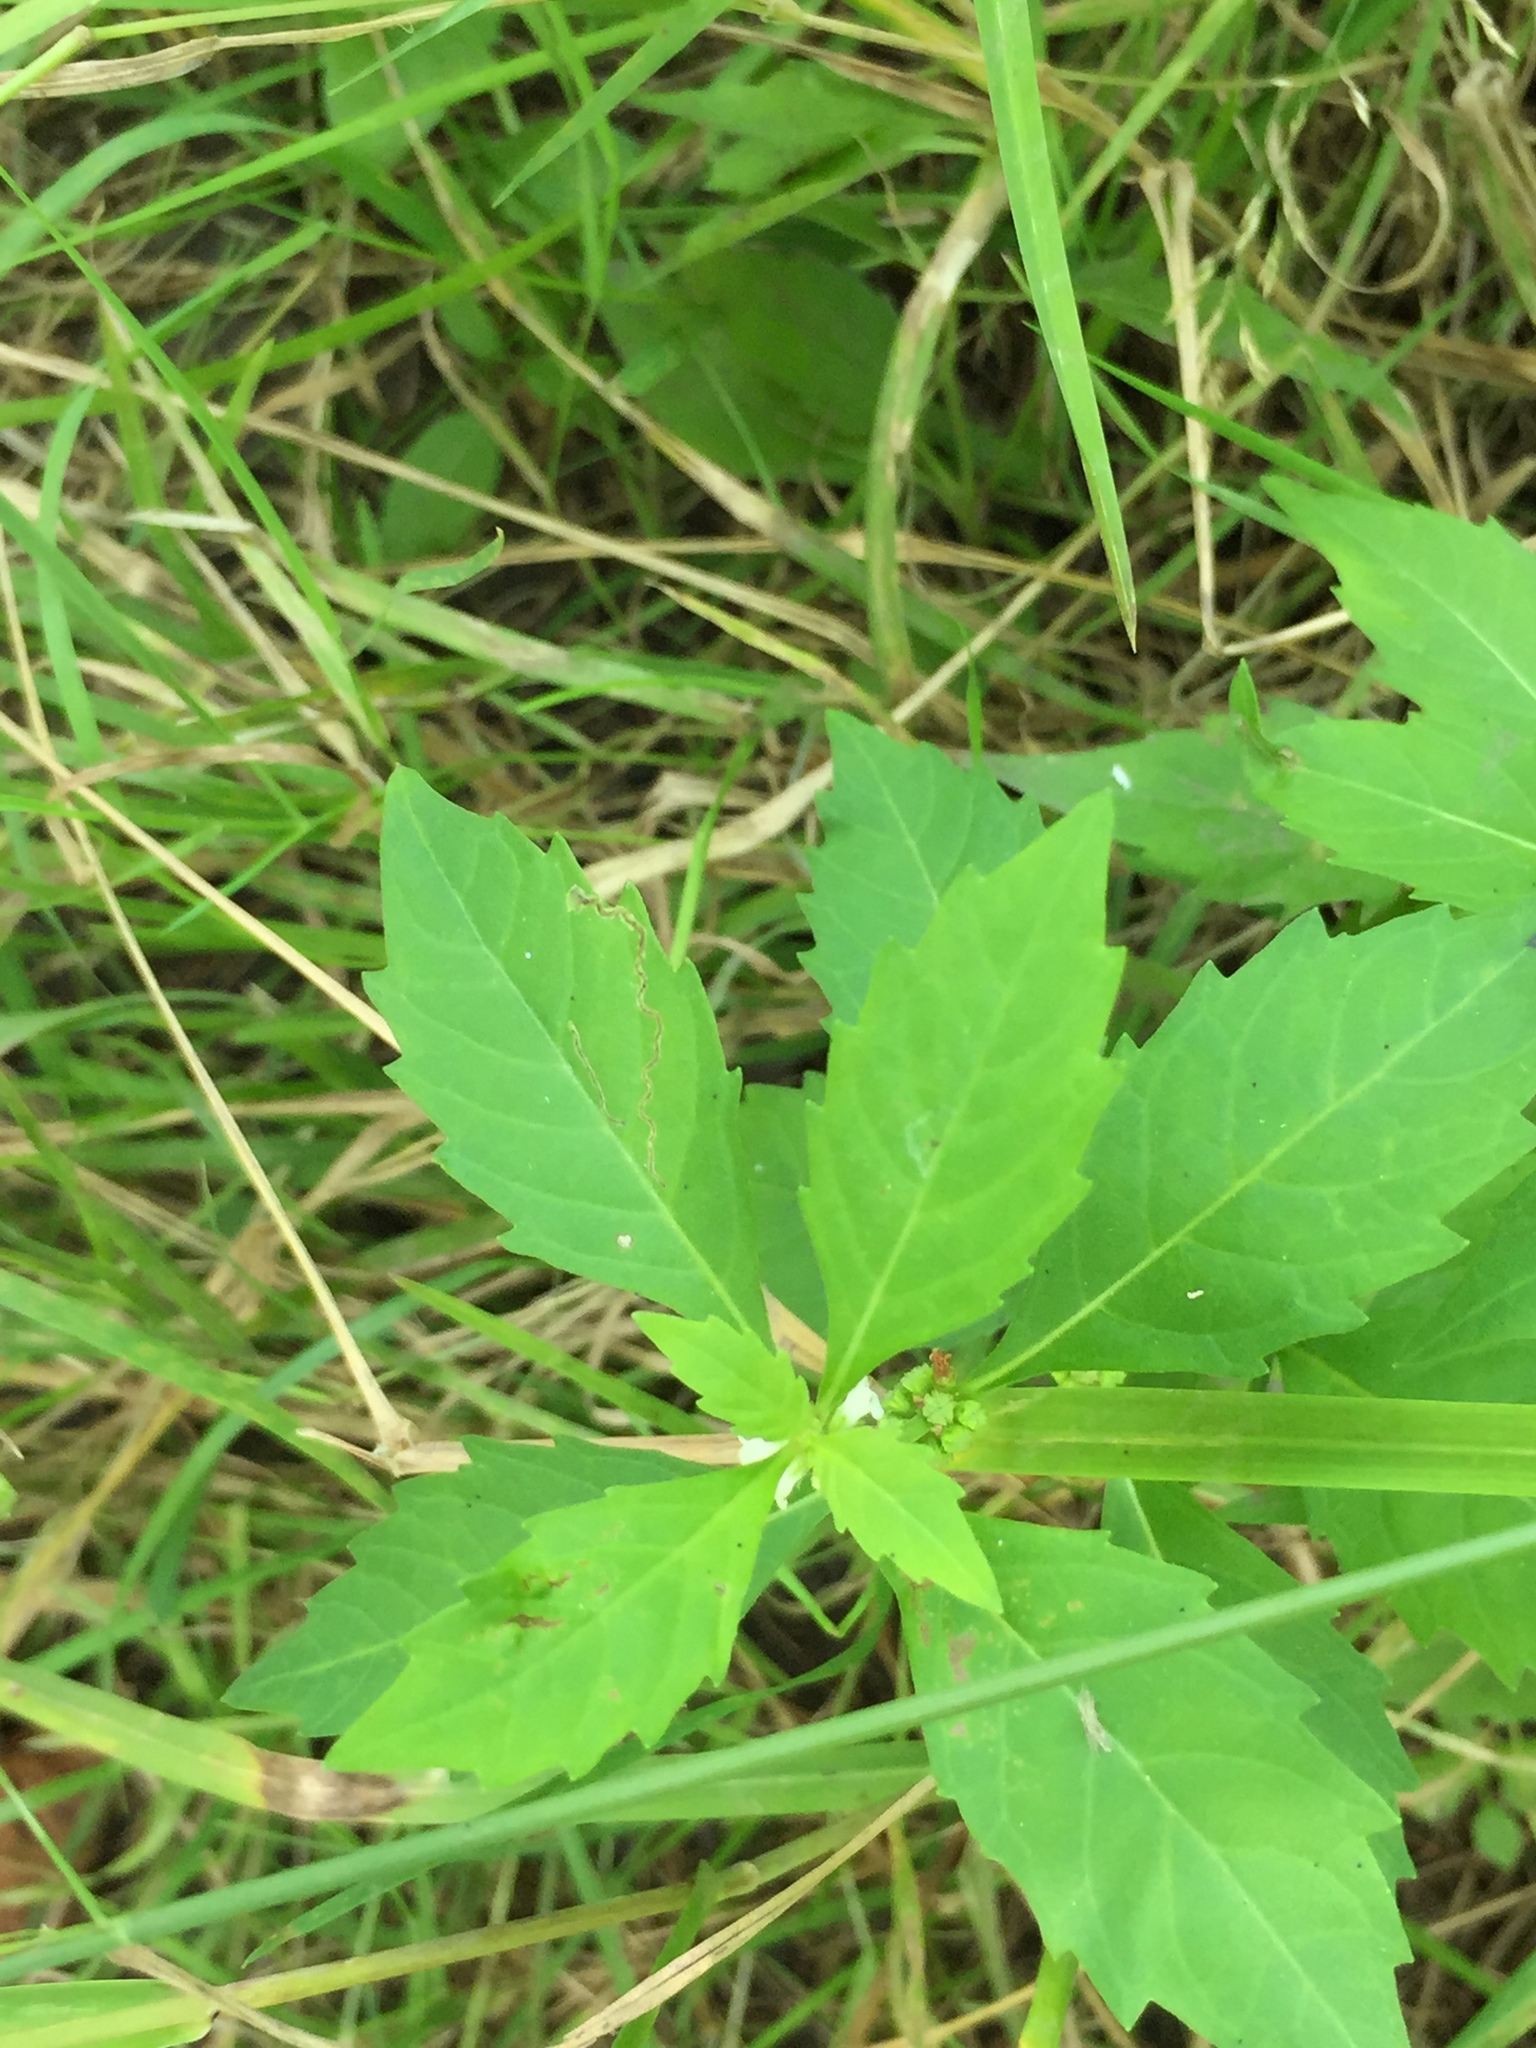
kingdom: Plantae
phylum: Tracheophyta
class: Magnoliopsida
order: Lamiales
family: Lamiaceae
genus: Lycopus
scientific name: Lycopus uniflorus
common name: Northern bugleweed
